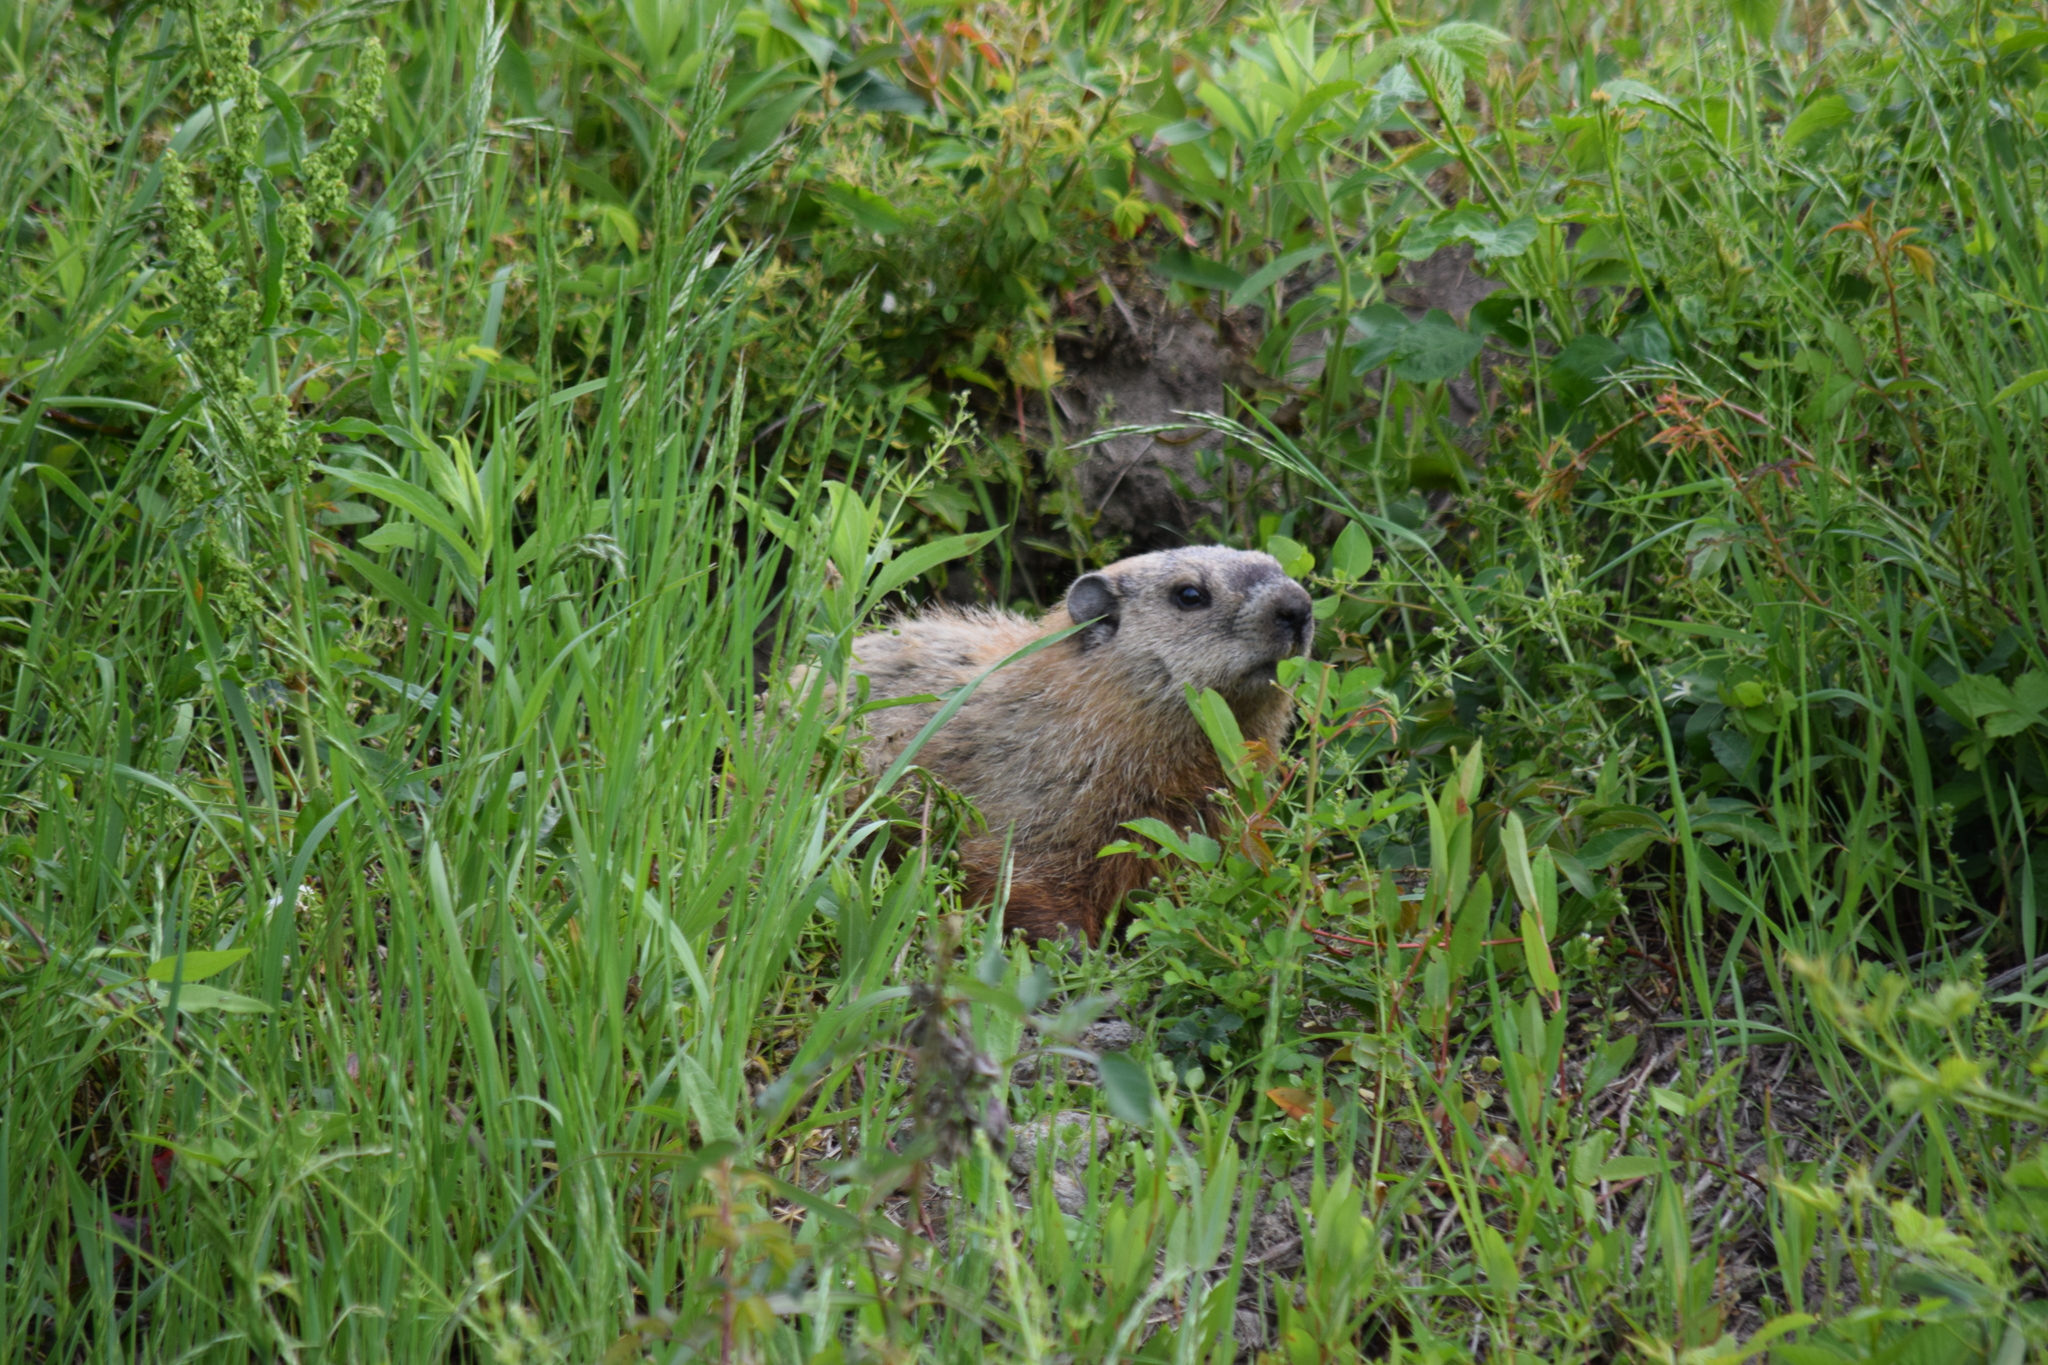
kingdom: Animalia
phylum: Chordata
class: Mammalia
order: Rodentia
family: Sciuridae
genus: Marmota
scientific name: Marmota monax
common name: Groundhog
